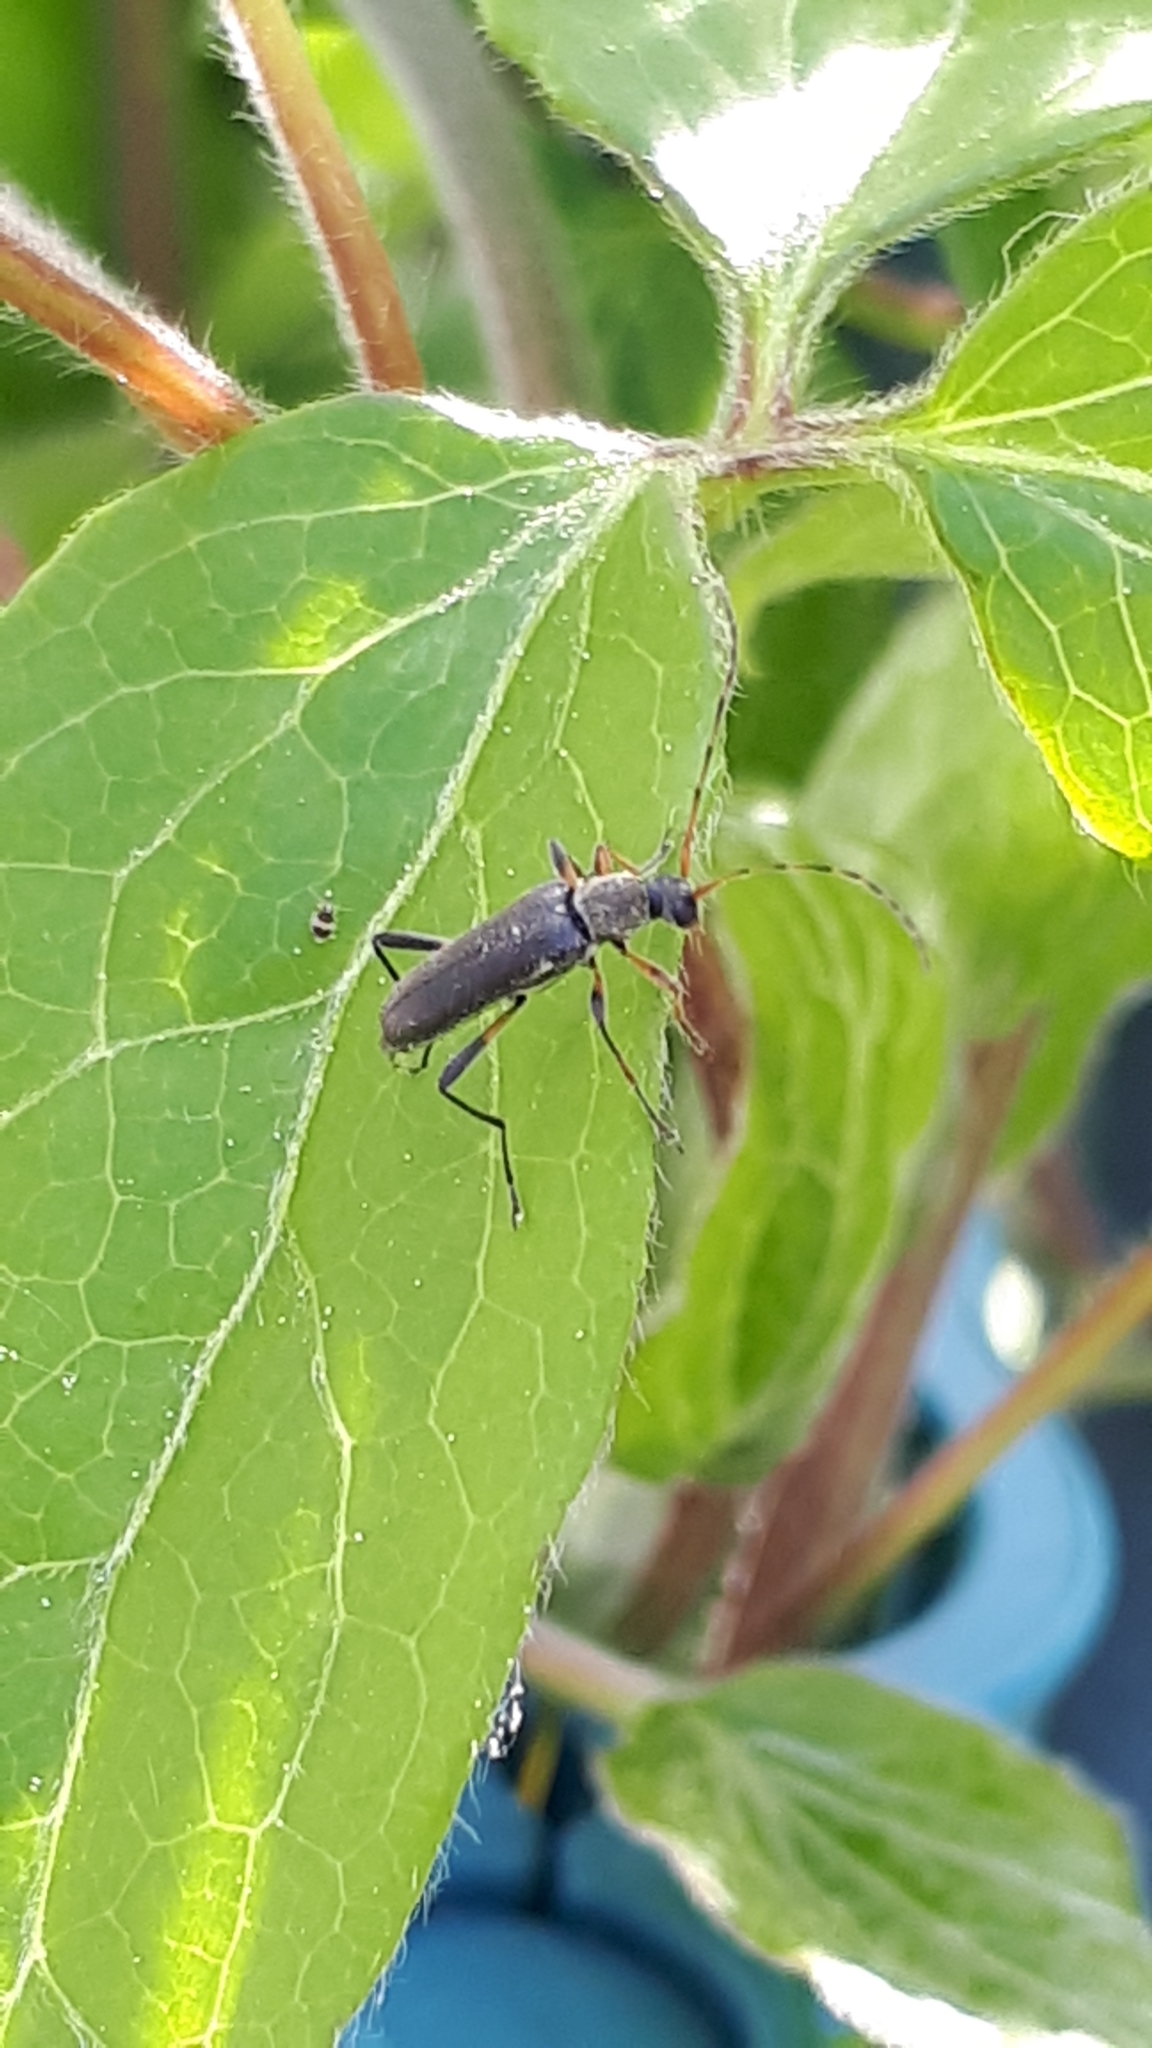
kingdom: Animalia
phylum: Arthropoda
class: Insecta
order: Coleoptera
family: Cerambycidae
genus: Grammoptera
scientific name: Grammoptera ruficornis
